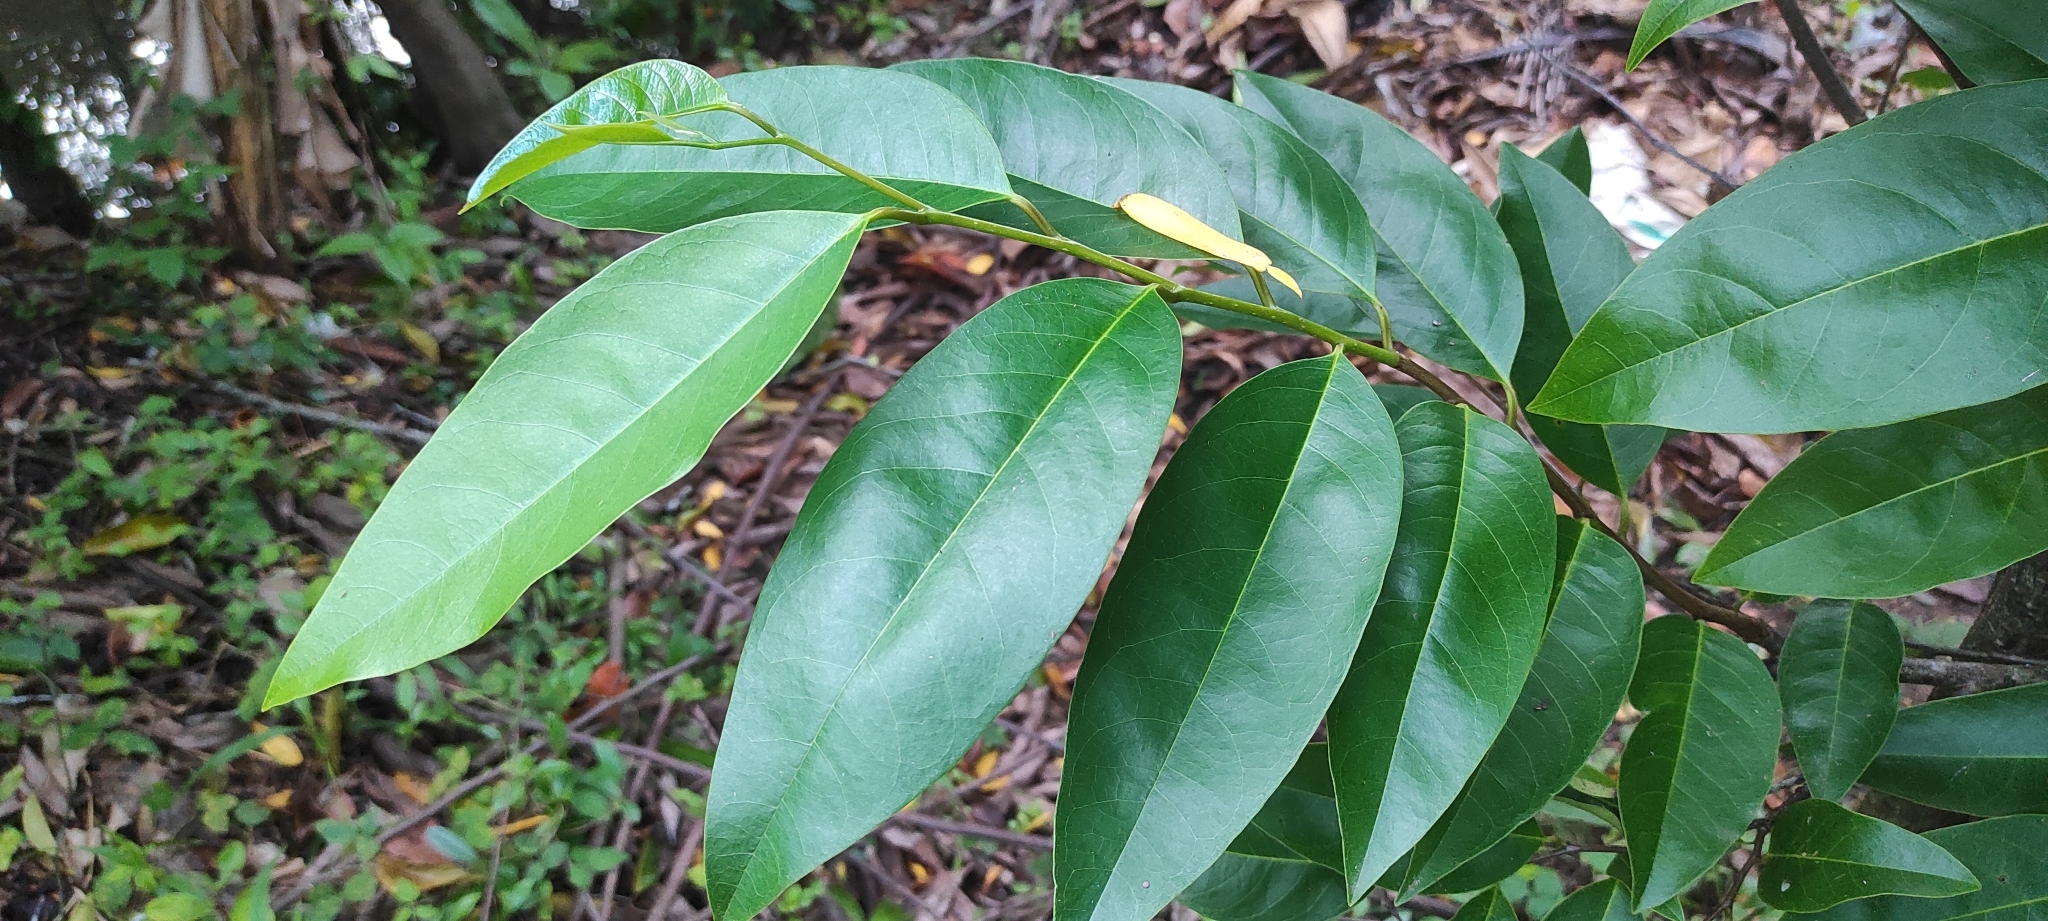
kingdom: Plantae
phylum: Tracheophyta
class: Magnoliopsida
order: Magnoliales
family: Annonaceae
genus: Annona
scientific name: Annona glabra
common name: Monkey apple
